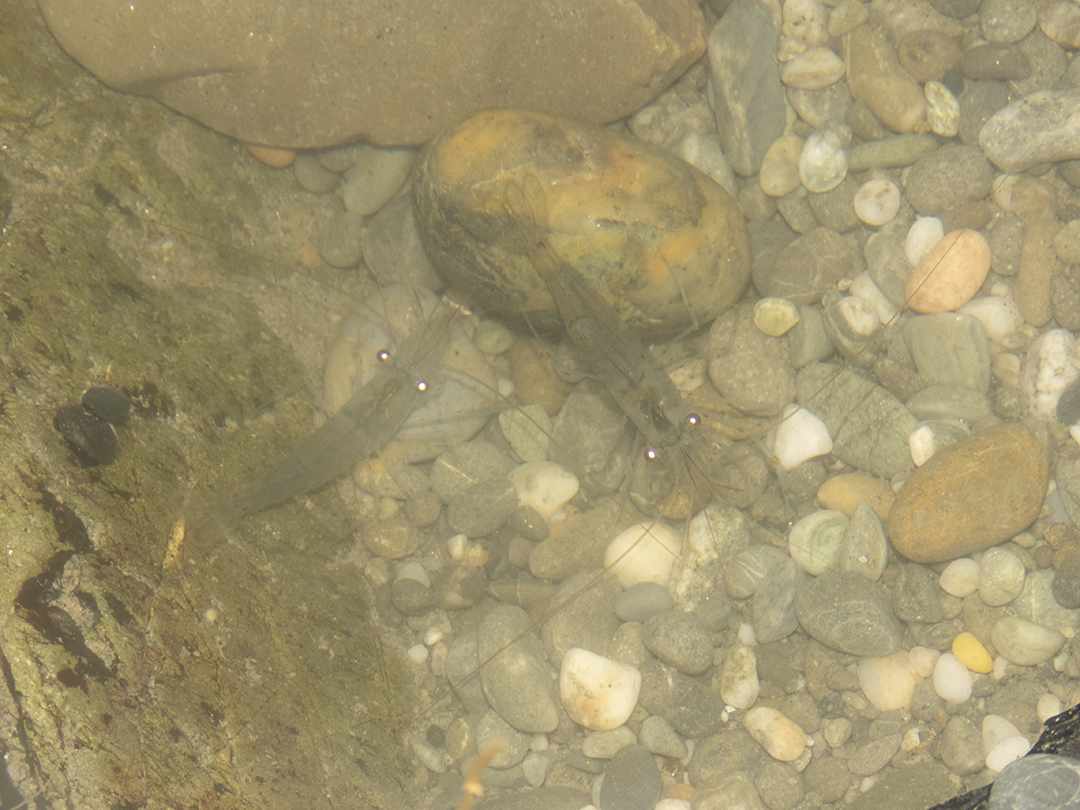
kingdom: Animalia
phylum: Arthropoda
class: Malacostraca
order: Decapoda
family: Palaemonidae
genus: Palaemon
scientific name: Palaemon affinis
